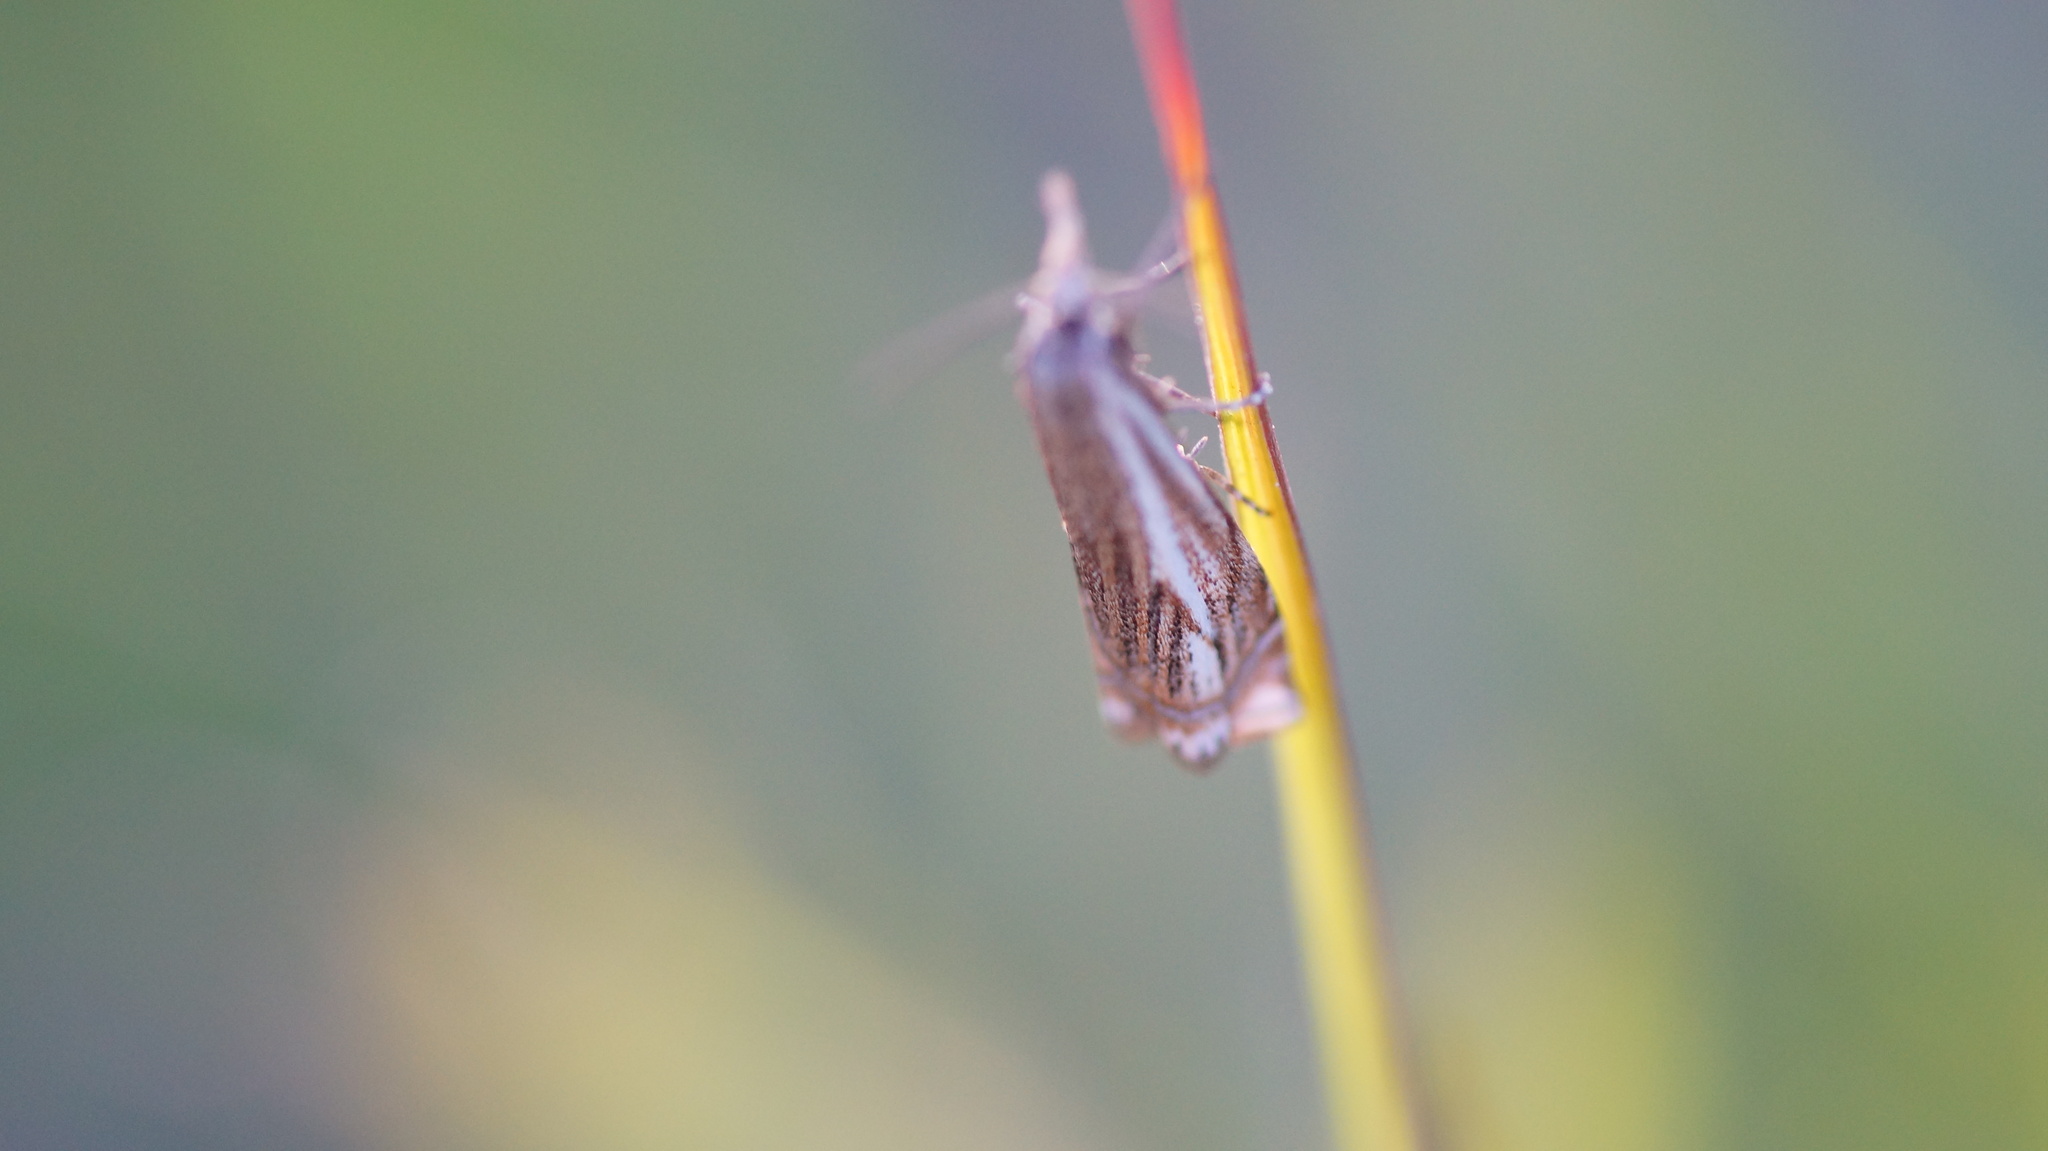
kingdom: Animalia
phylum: Arthropoda
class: Insecta
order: Lepidoptera
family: Crambidae
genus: Crambus
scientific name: Crambus nemorella
